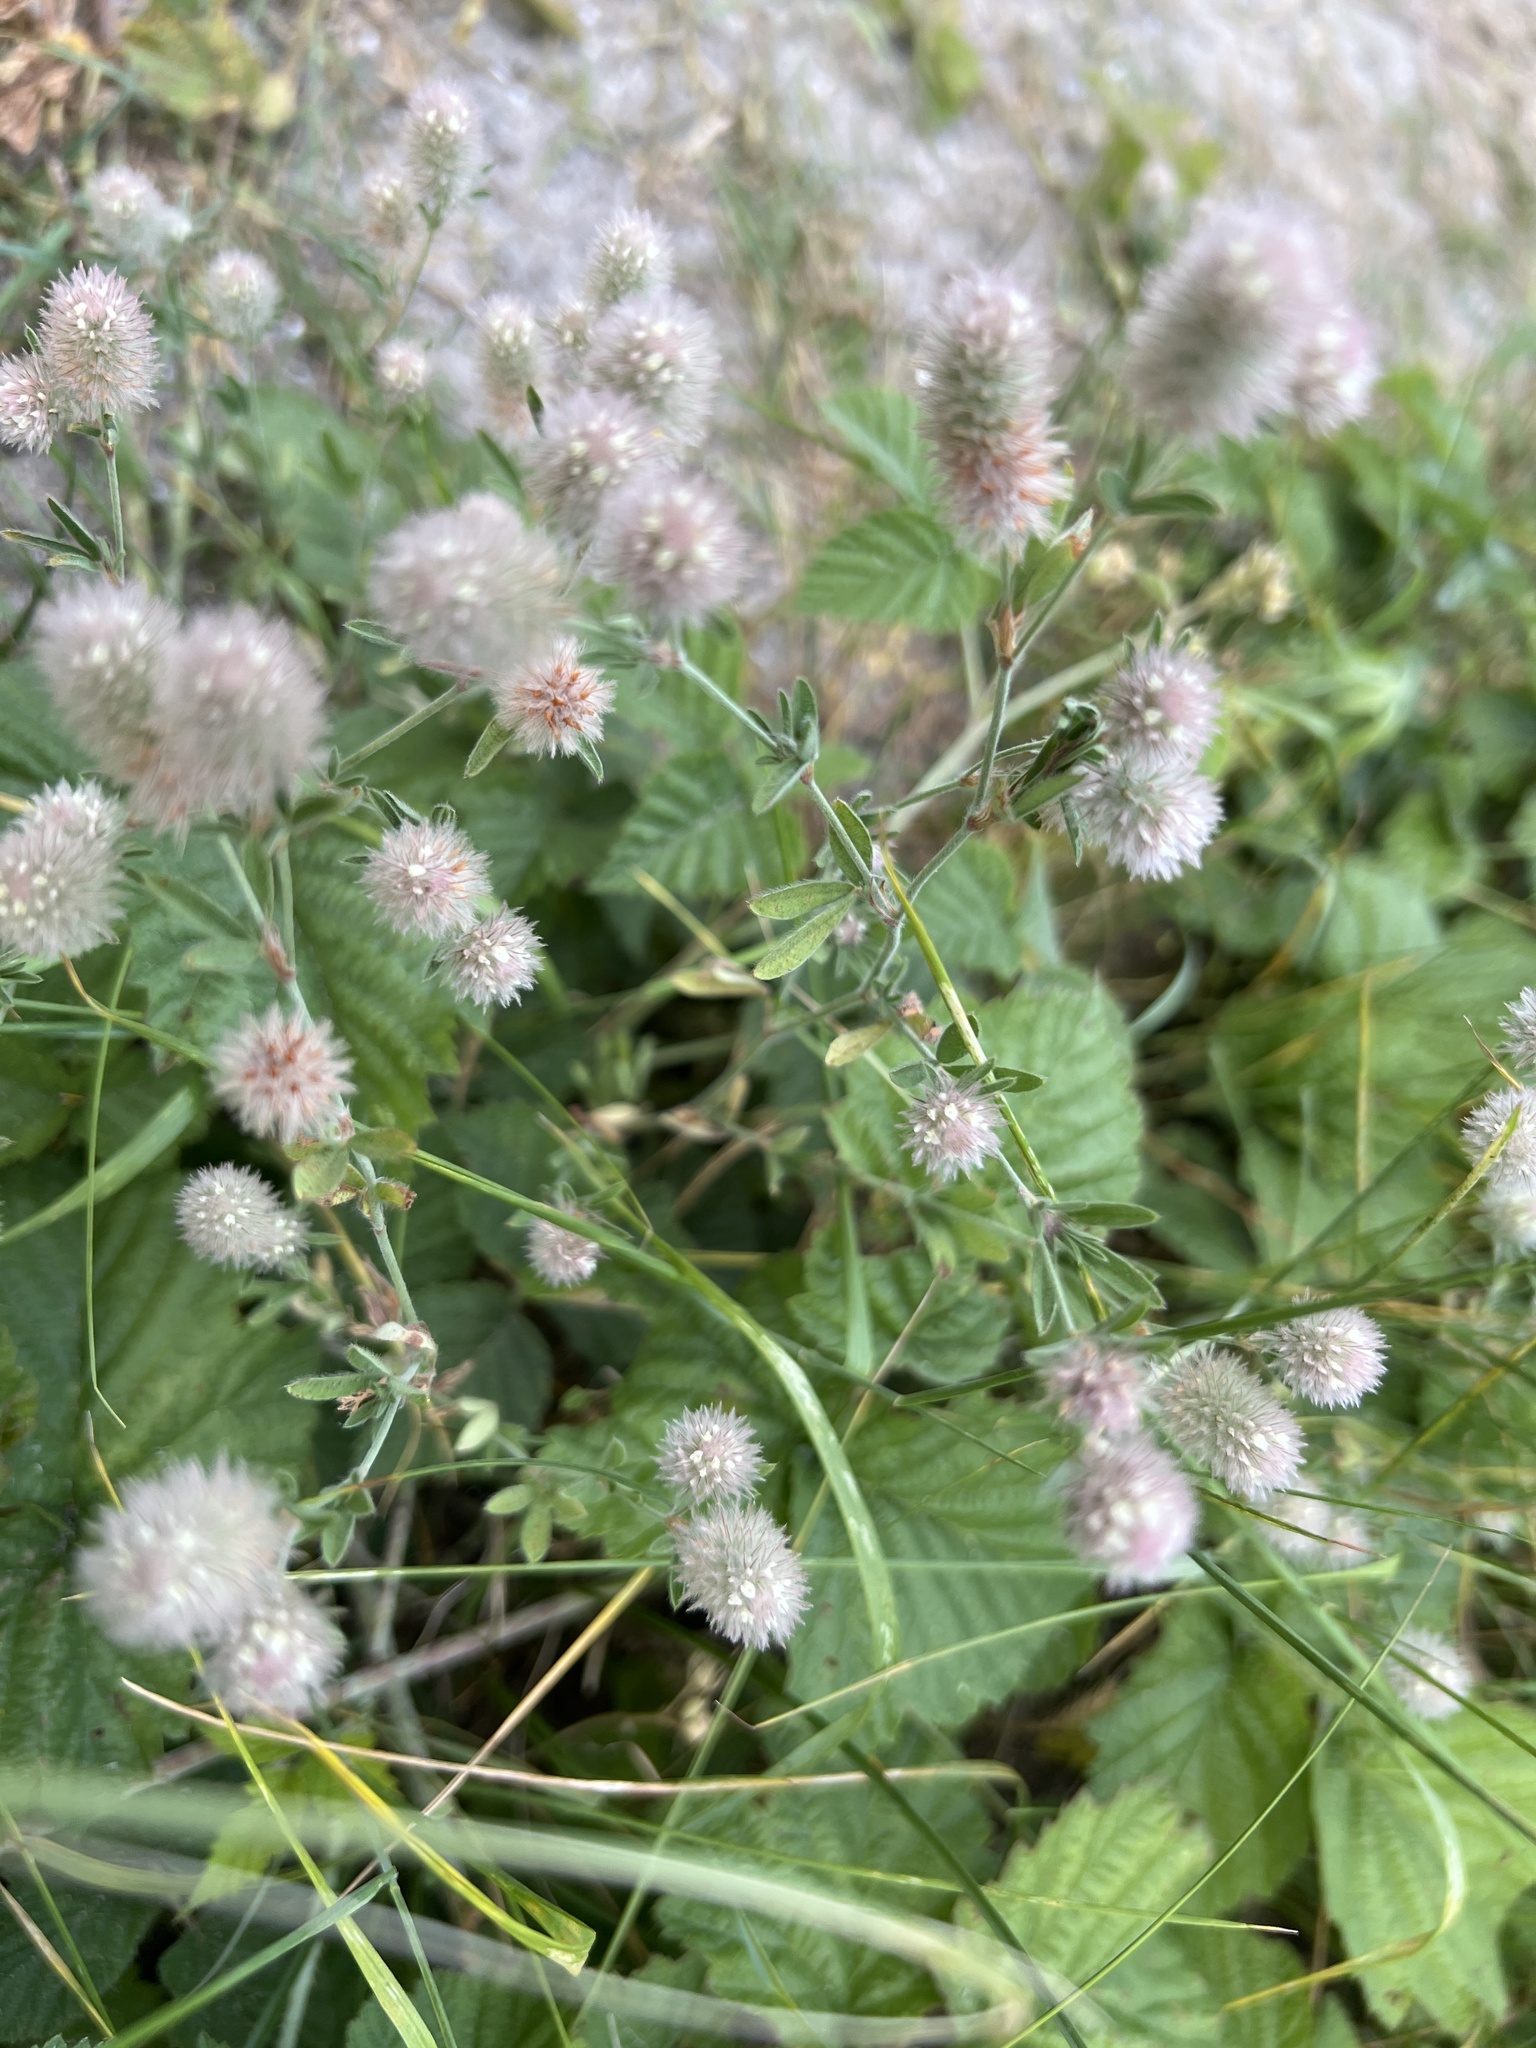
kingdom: Plantae
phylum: Tracheophyta
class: Magnoliopsida
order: Fabales
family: Fabaceae
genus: Trifolium
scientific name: Trifolium arvense
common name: Hare's-foot clover
